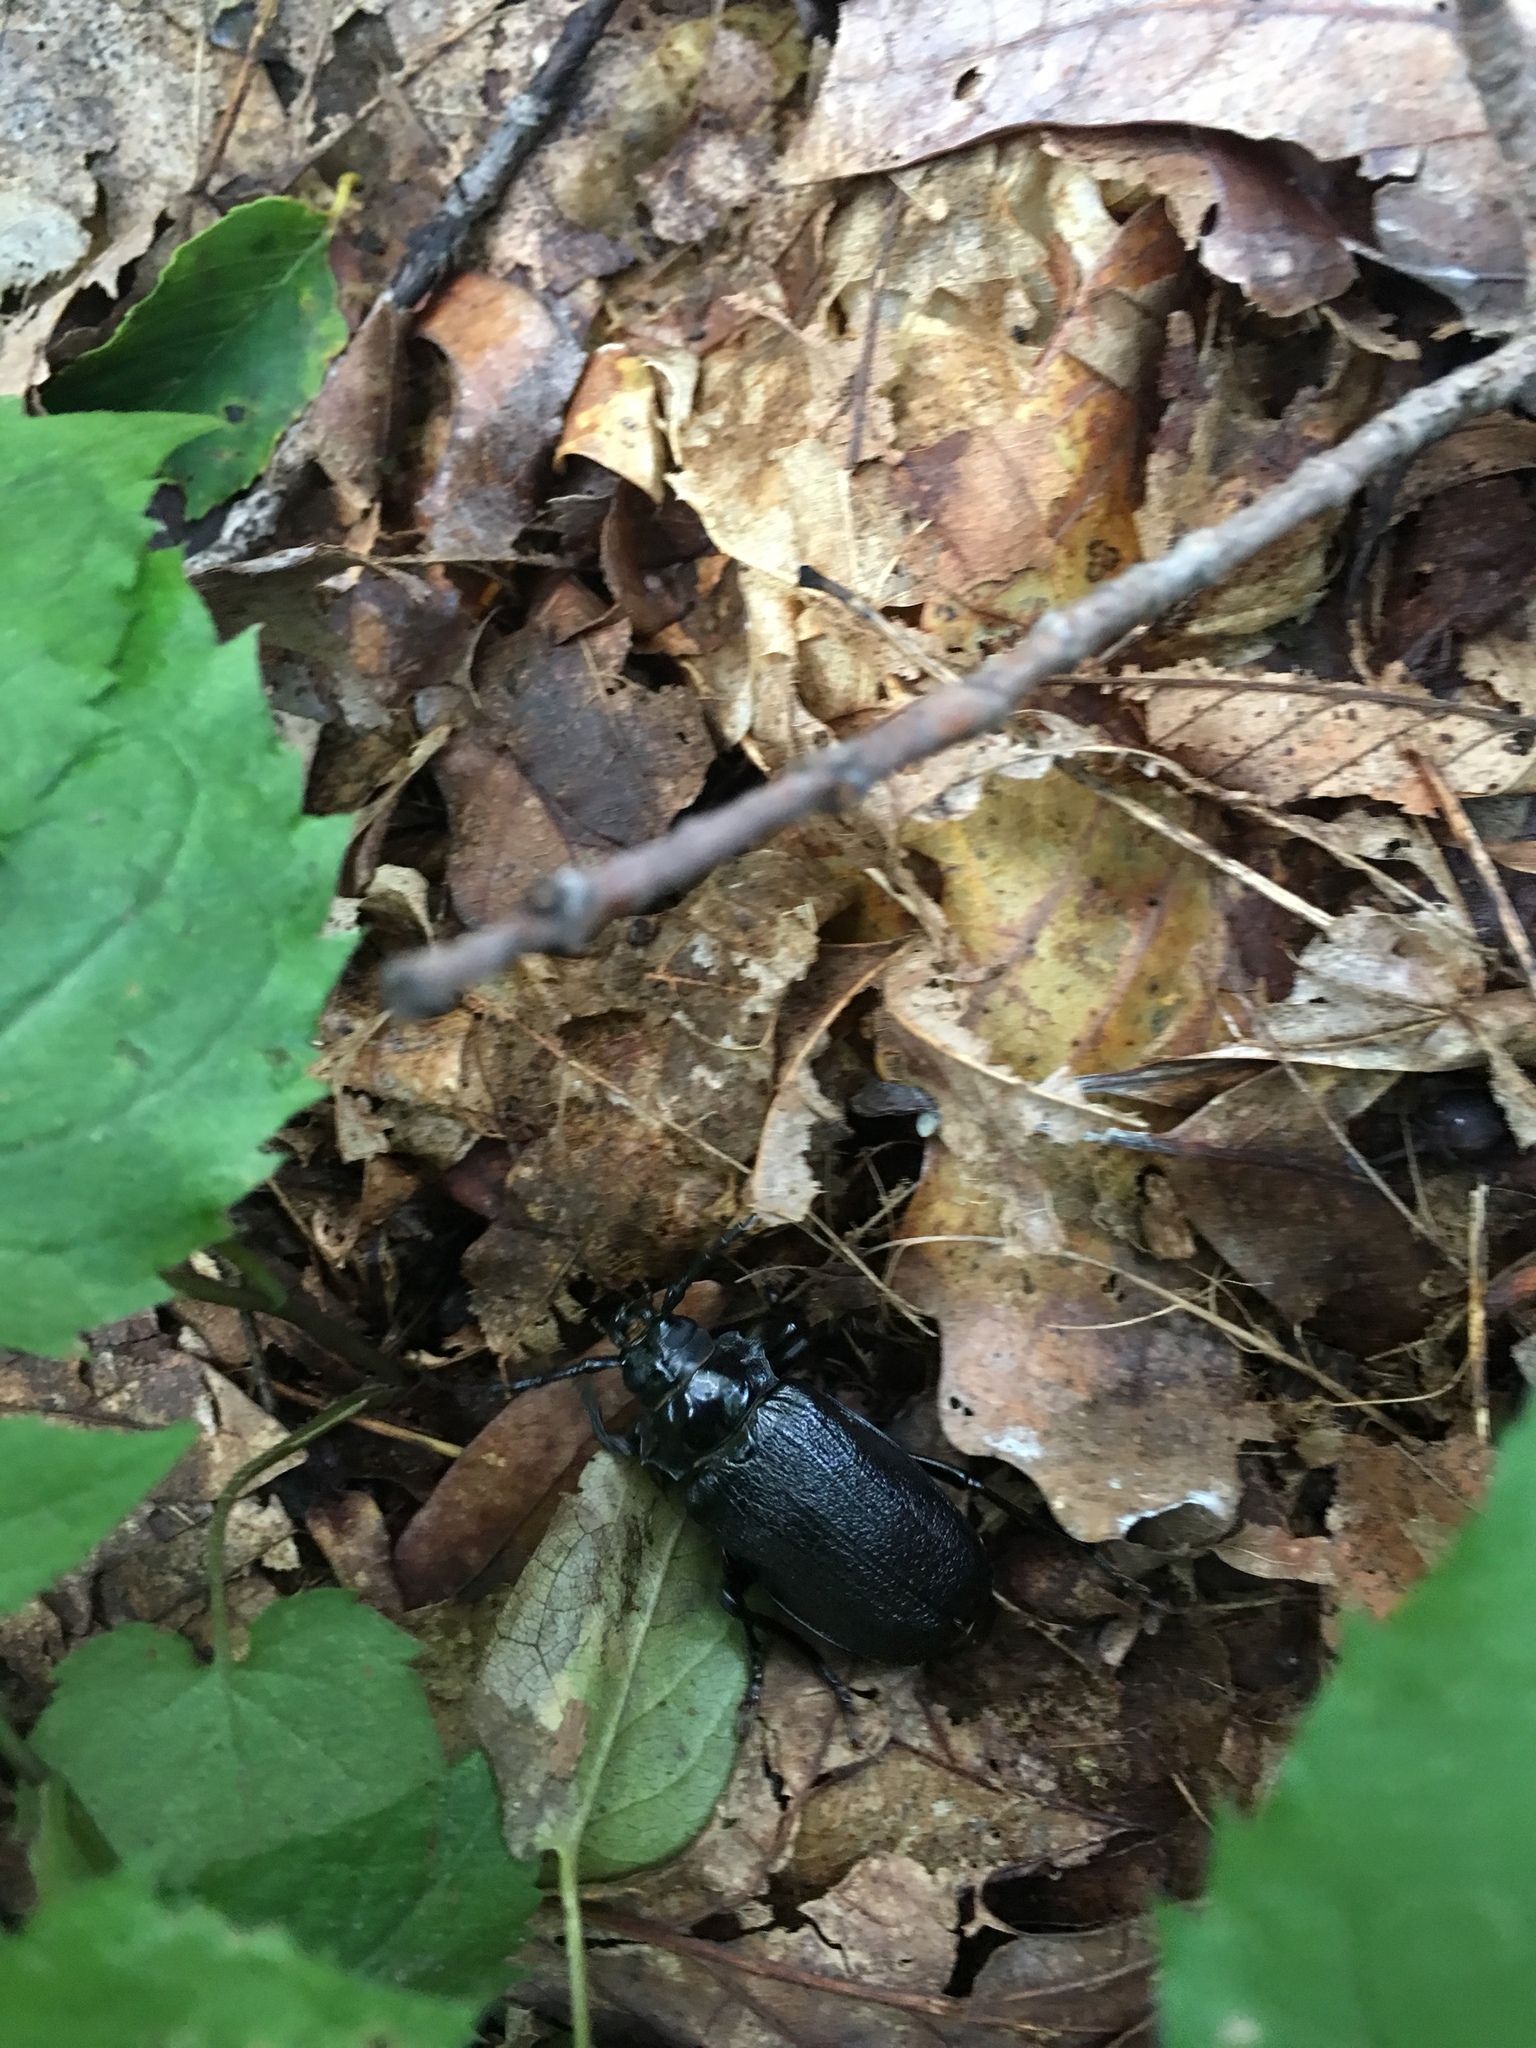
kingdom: Animalia
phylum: Arthropoda
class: Insecta
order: Coleoptera
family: Cerambycidae
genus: Prionus
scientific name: Prionus laticollis
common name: Broad necked prionus
